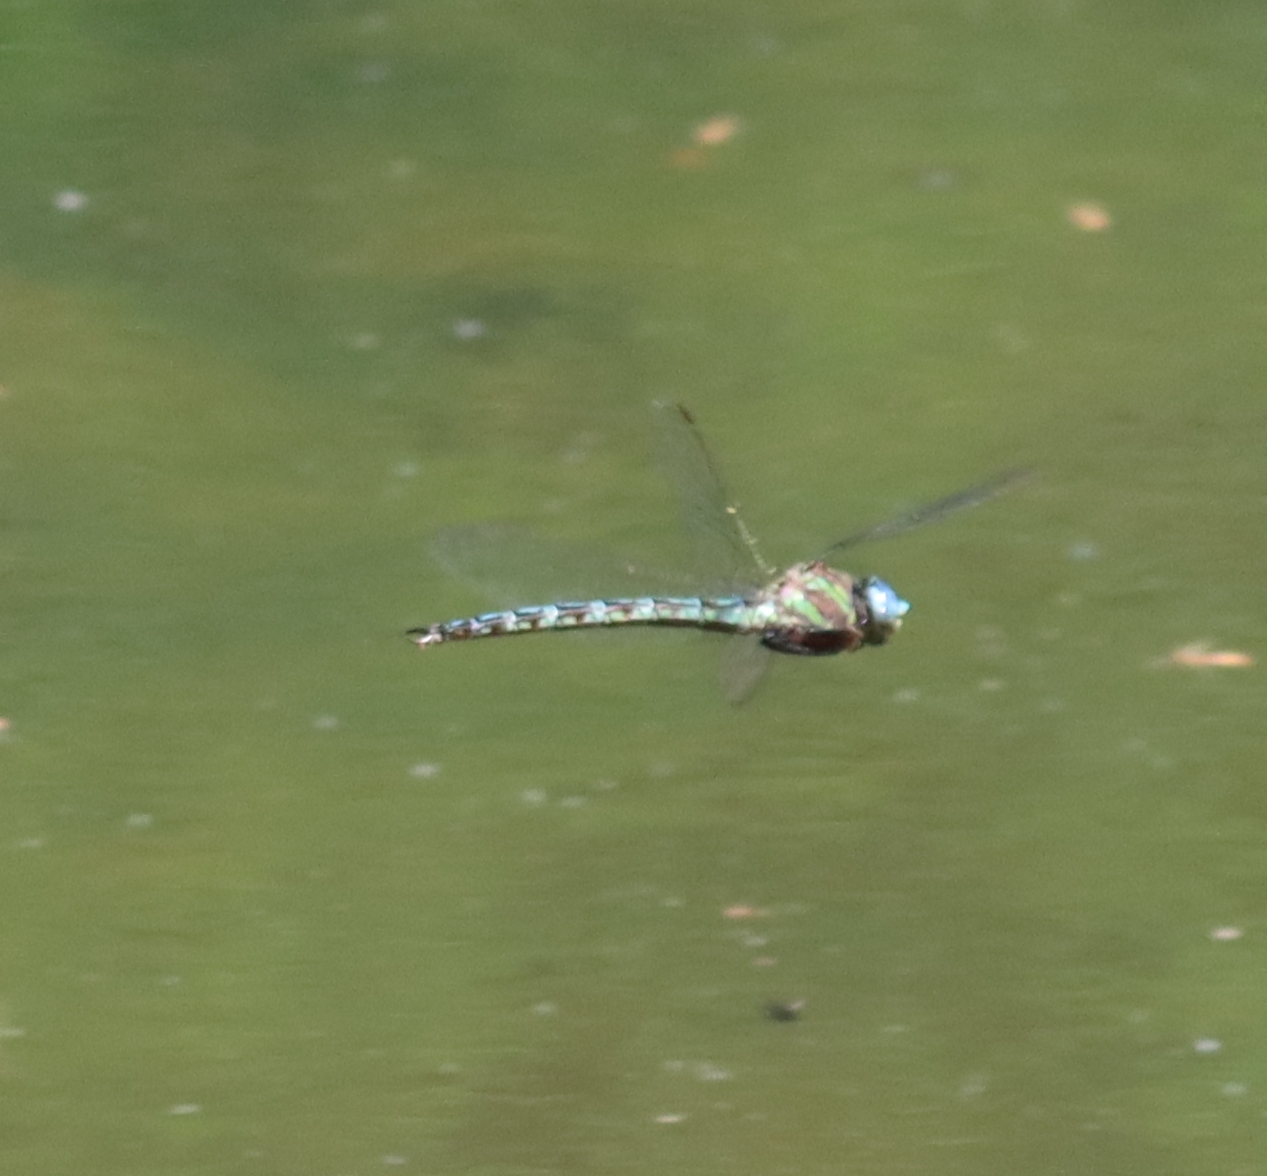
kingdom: Animalia
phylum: Arthropoda
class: Insecta
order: Odonata
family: Aeshnidae
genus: Nasiaeschna
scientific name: Nasiaeschna pentacantha
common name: Cyrano darner
